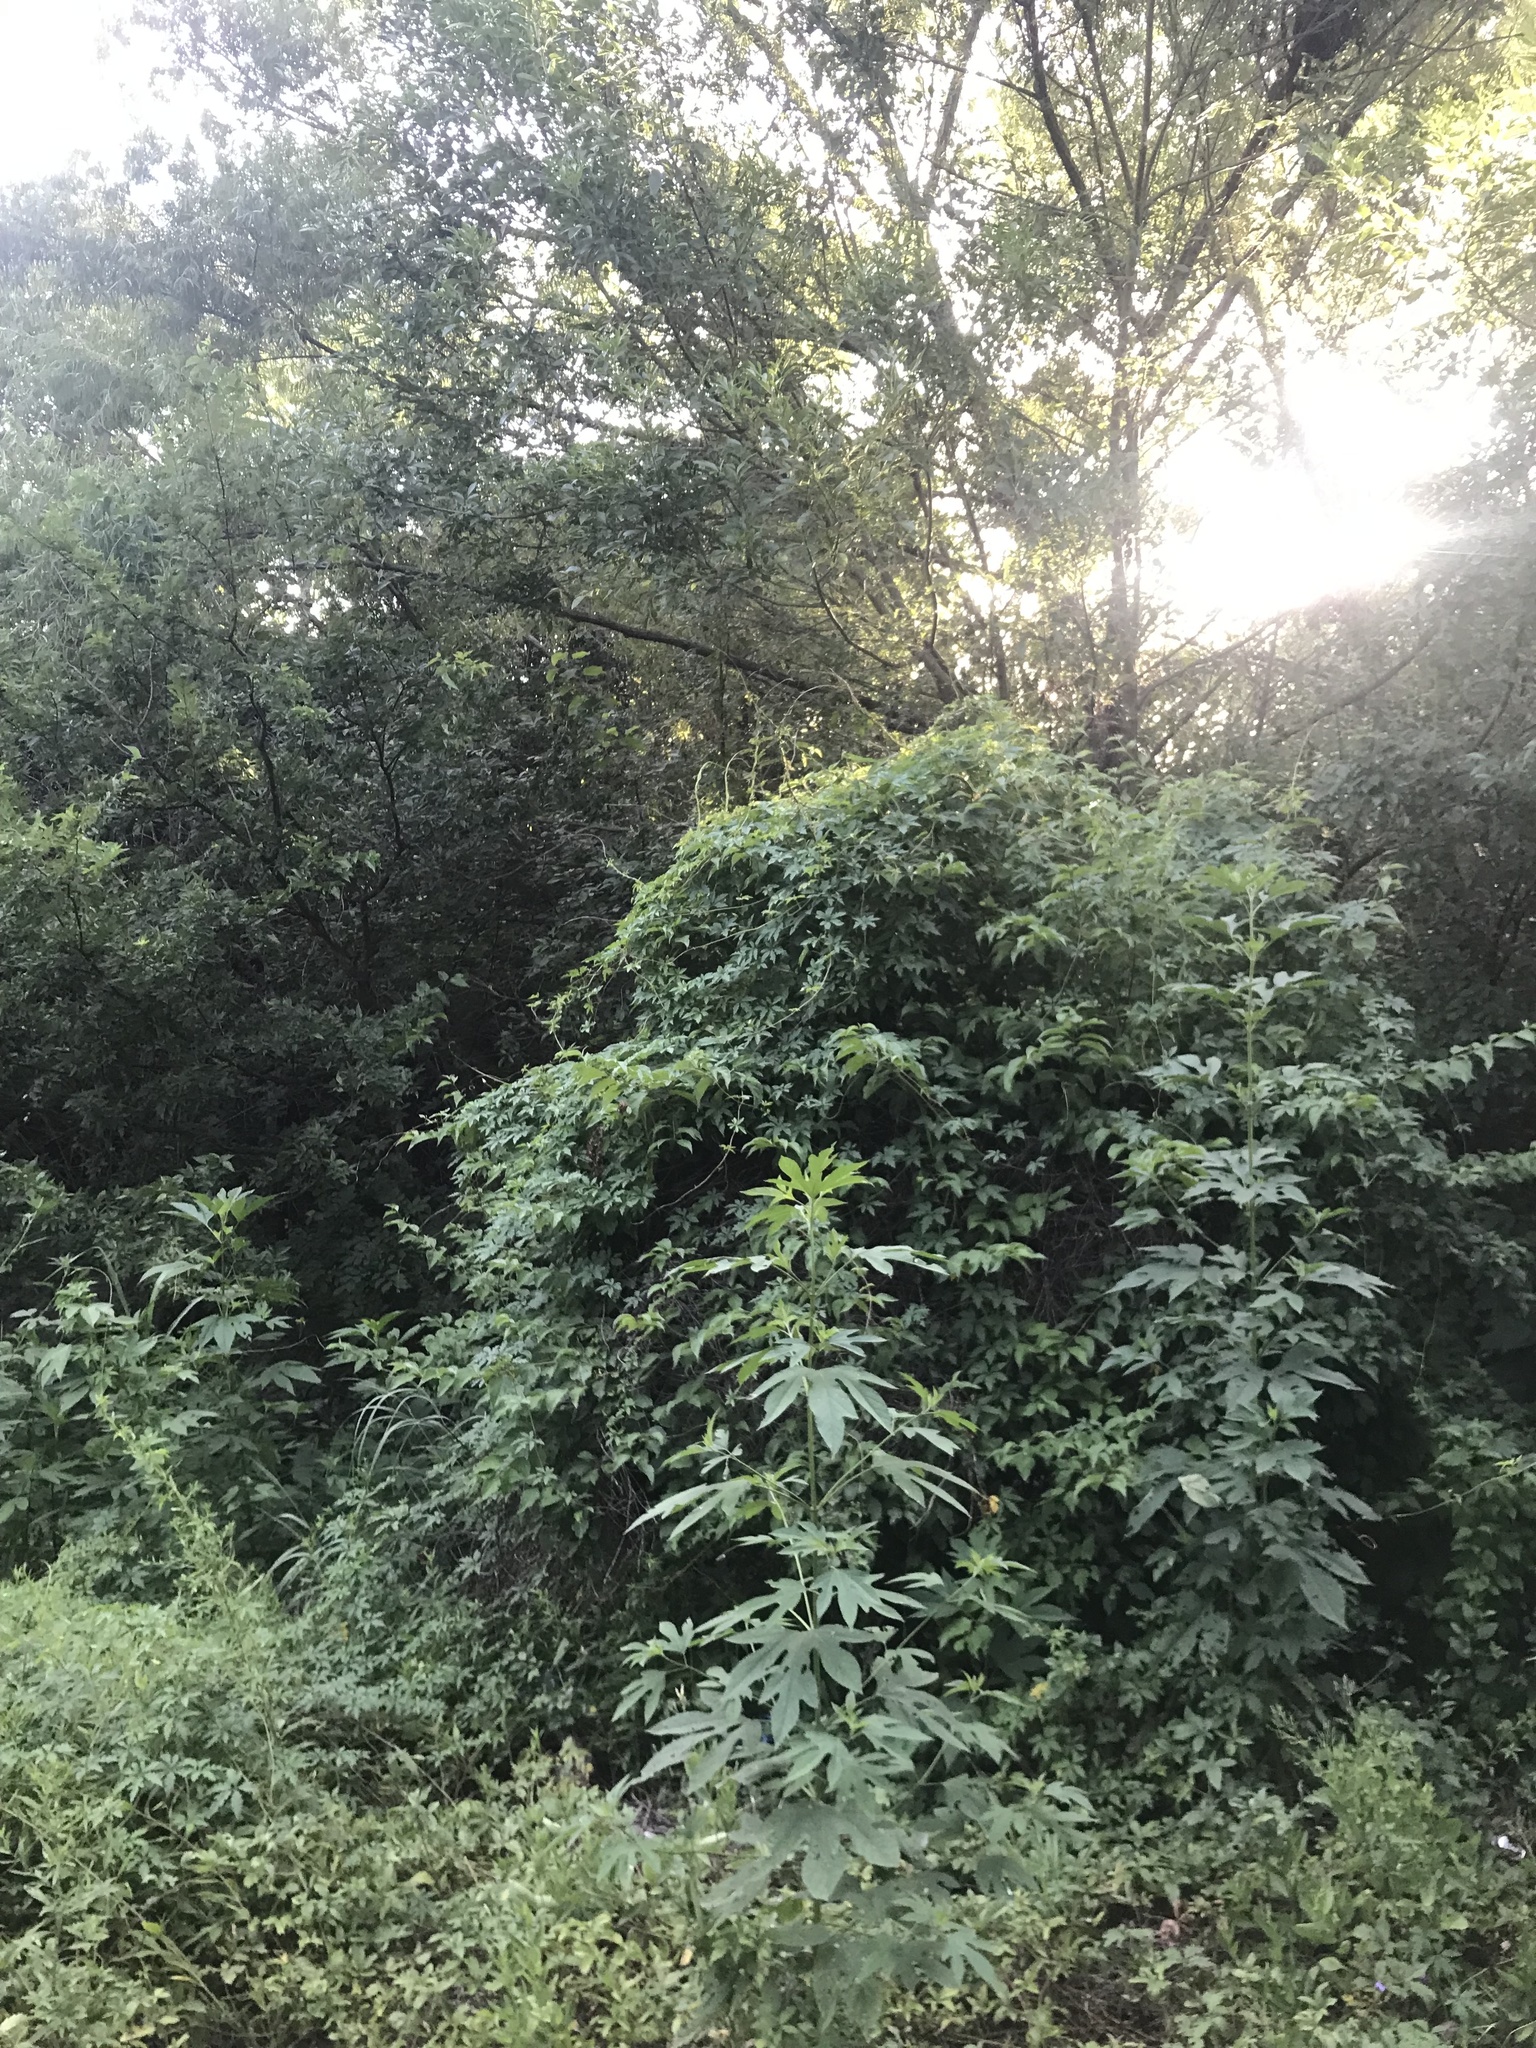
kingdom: Plantae
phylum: Tracheophyta
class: Magnoliopsida
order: Solanales
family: Convolvulaceae
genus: Distimake
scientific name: Distimake dissectus
